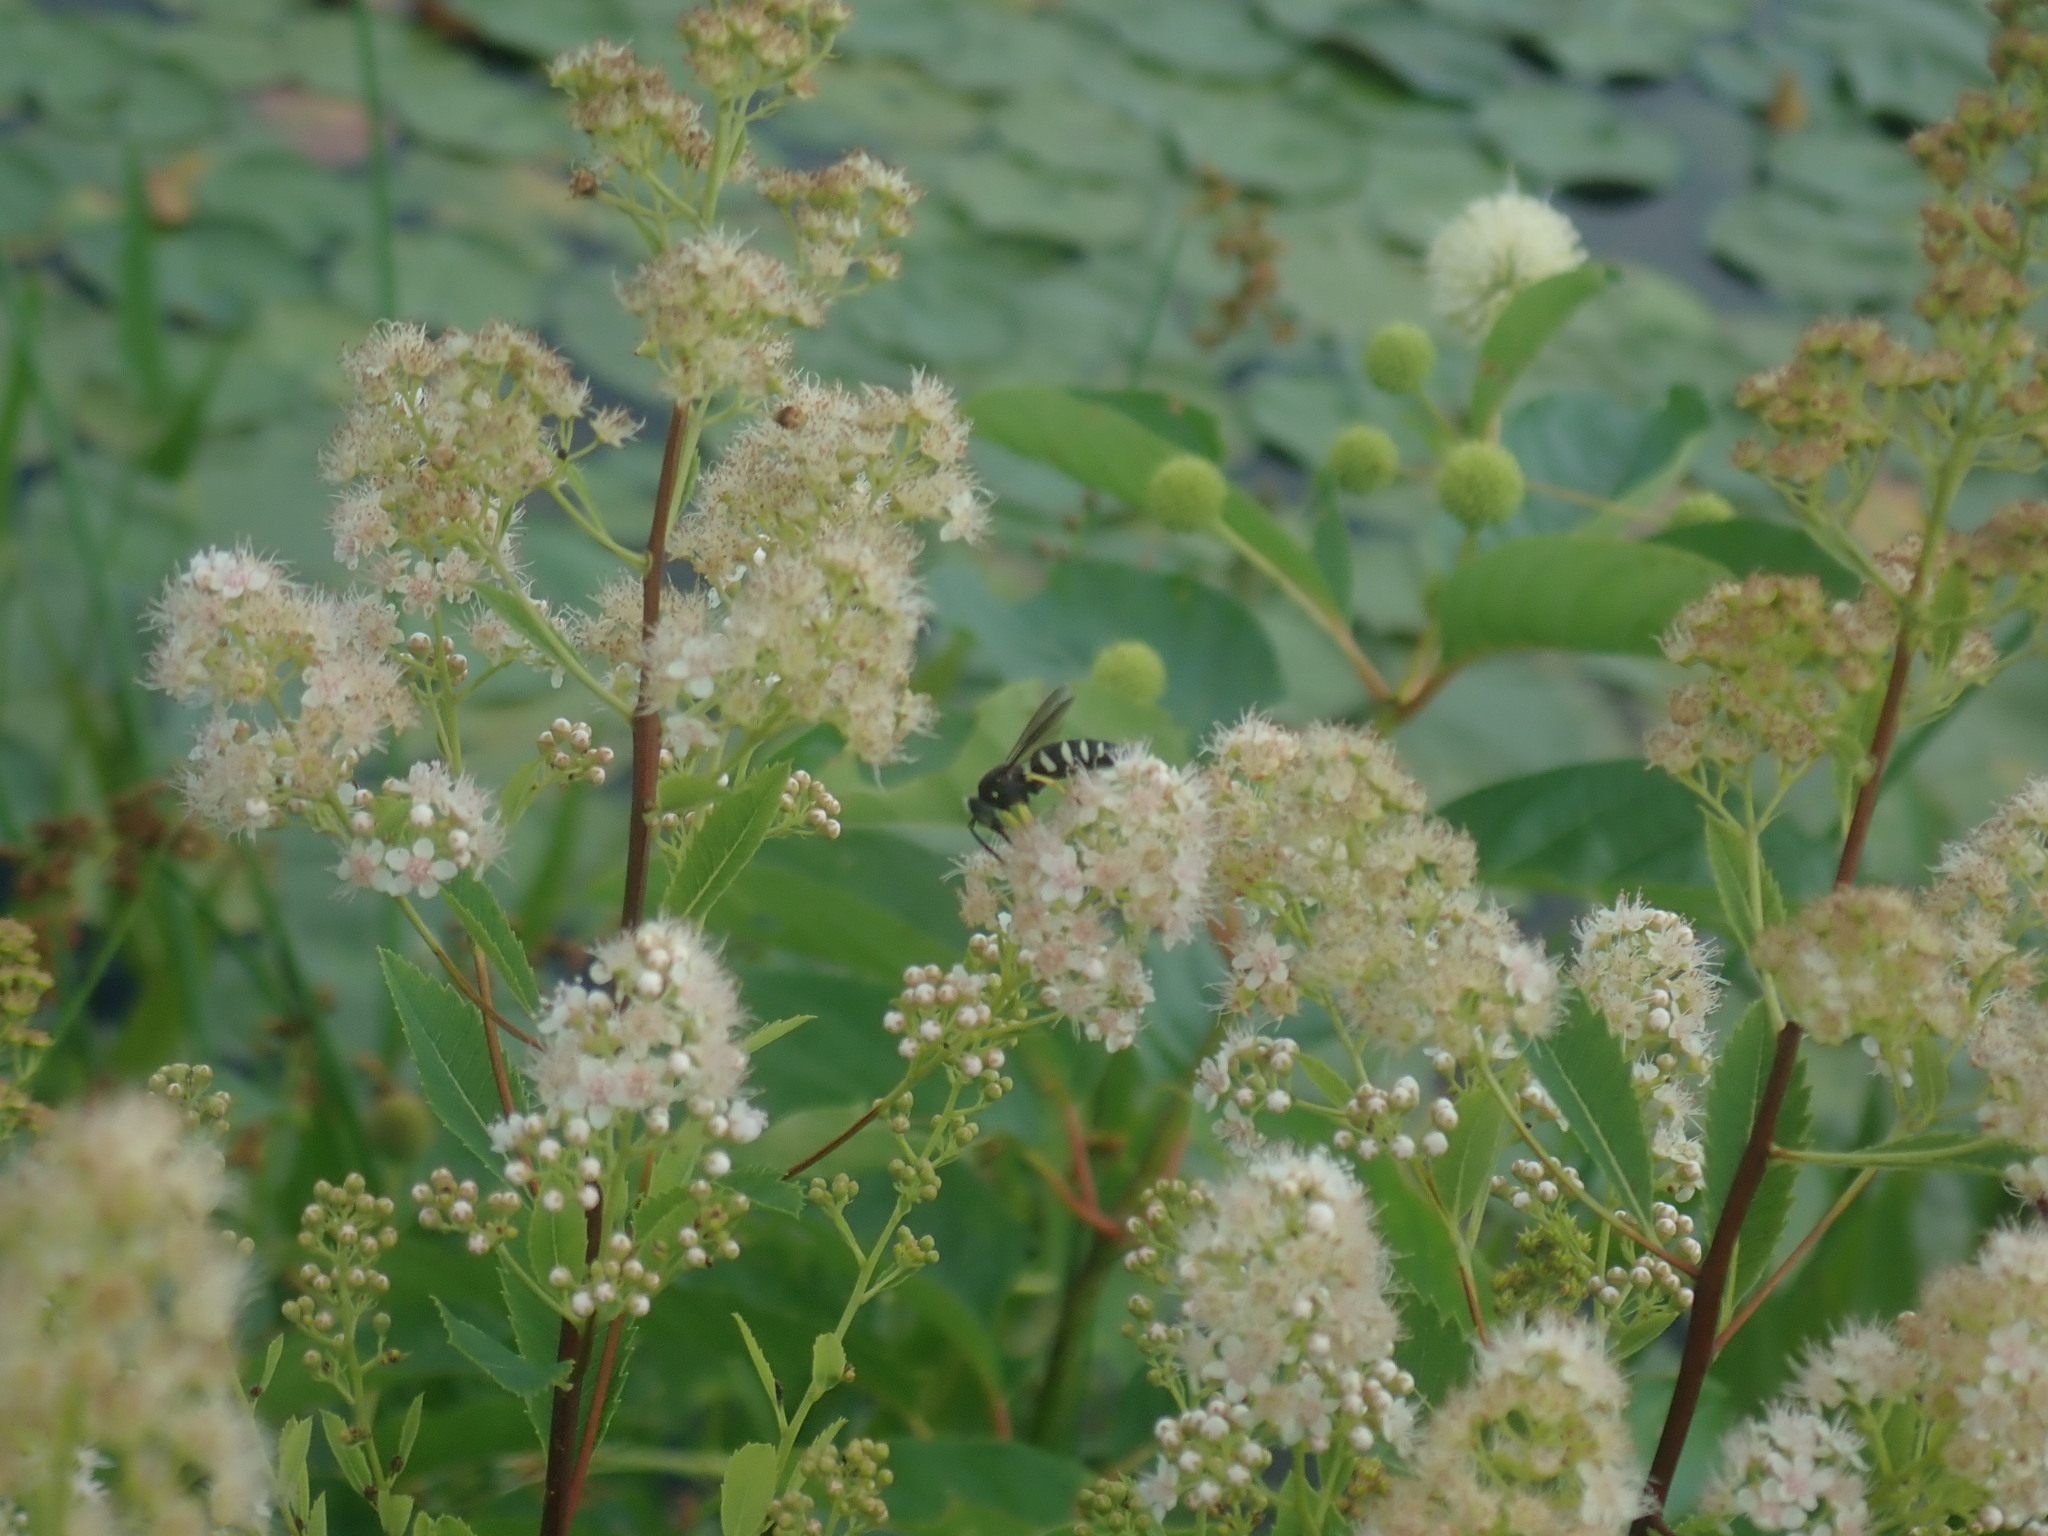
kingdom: Animalia
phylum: Arthropoda
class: Insecta
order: Hymenoptera
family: Crabronidae
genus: Bicyrtes
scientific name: Bicyrtes quadrifasciatus
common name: Four-banded stink bug hunter wasp
